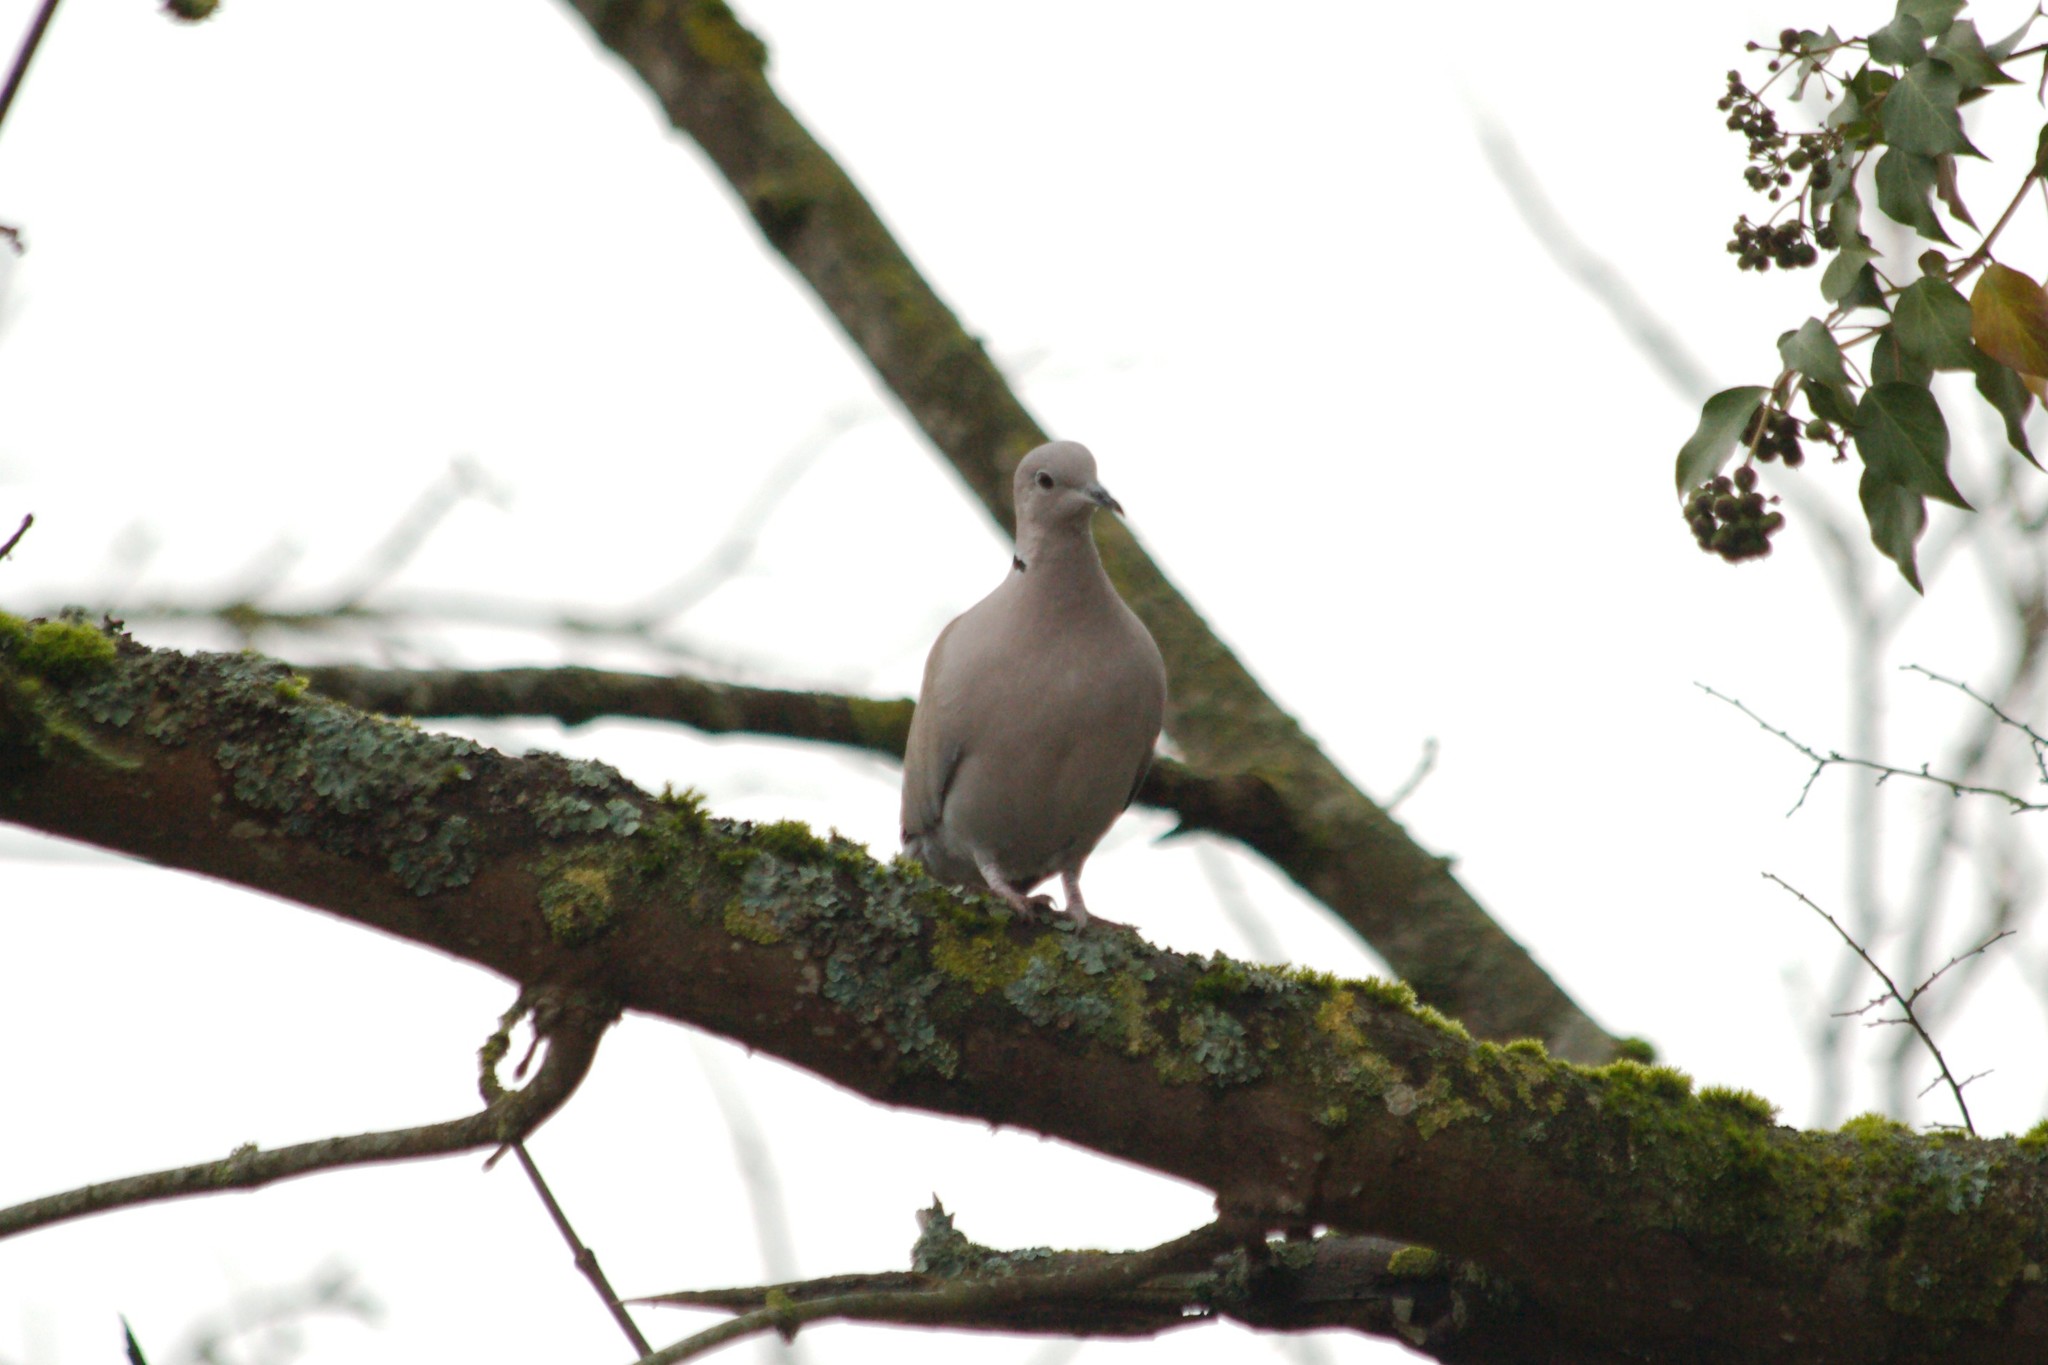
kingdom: Animalia
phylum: Chordata
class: Aves
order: Columbiformes
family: Columbidae
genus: Streptopelia
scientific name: Streptopelia decaocto
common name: Eurasian collared dove
